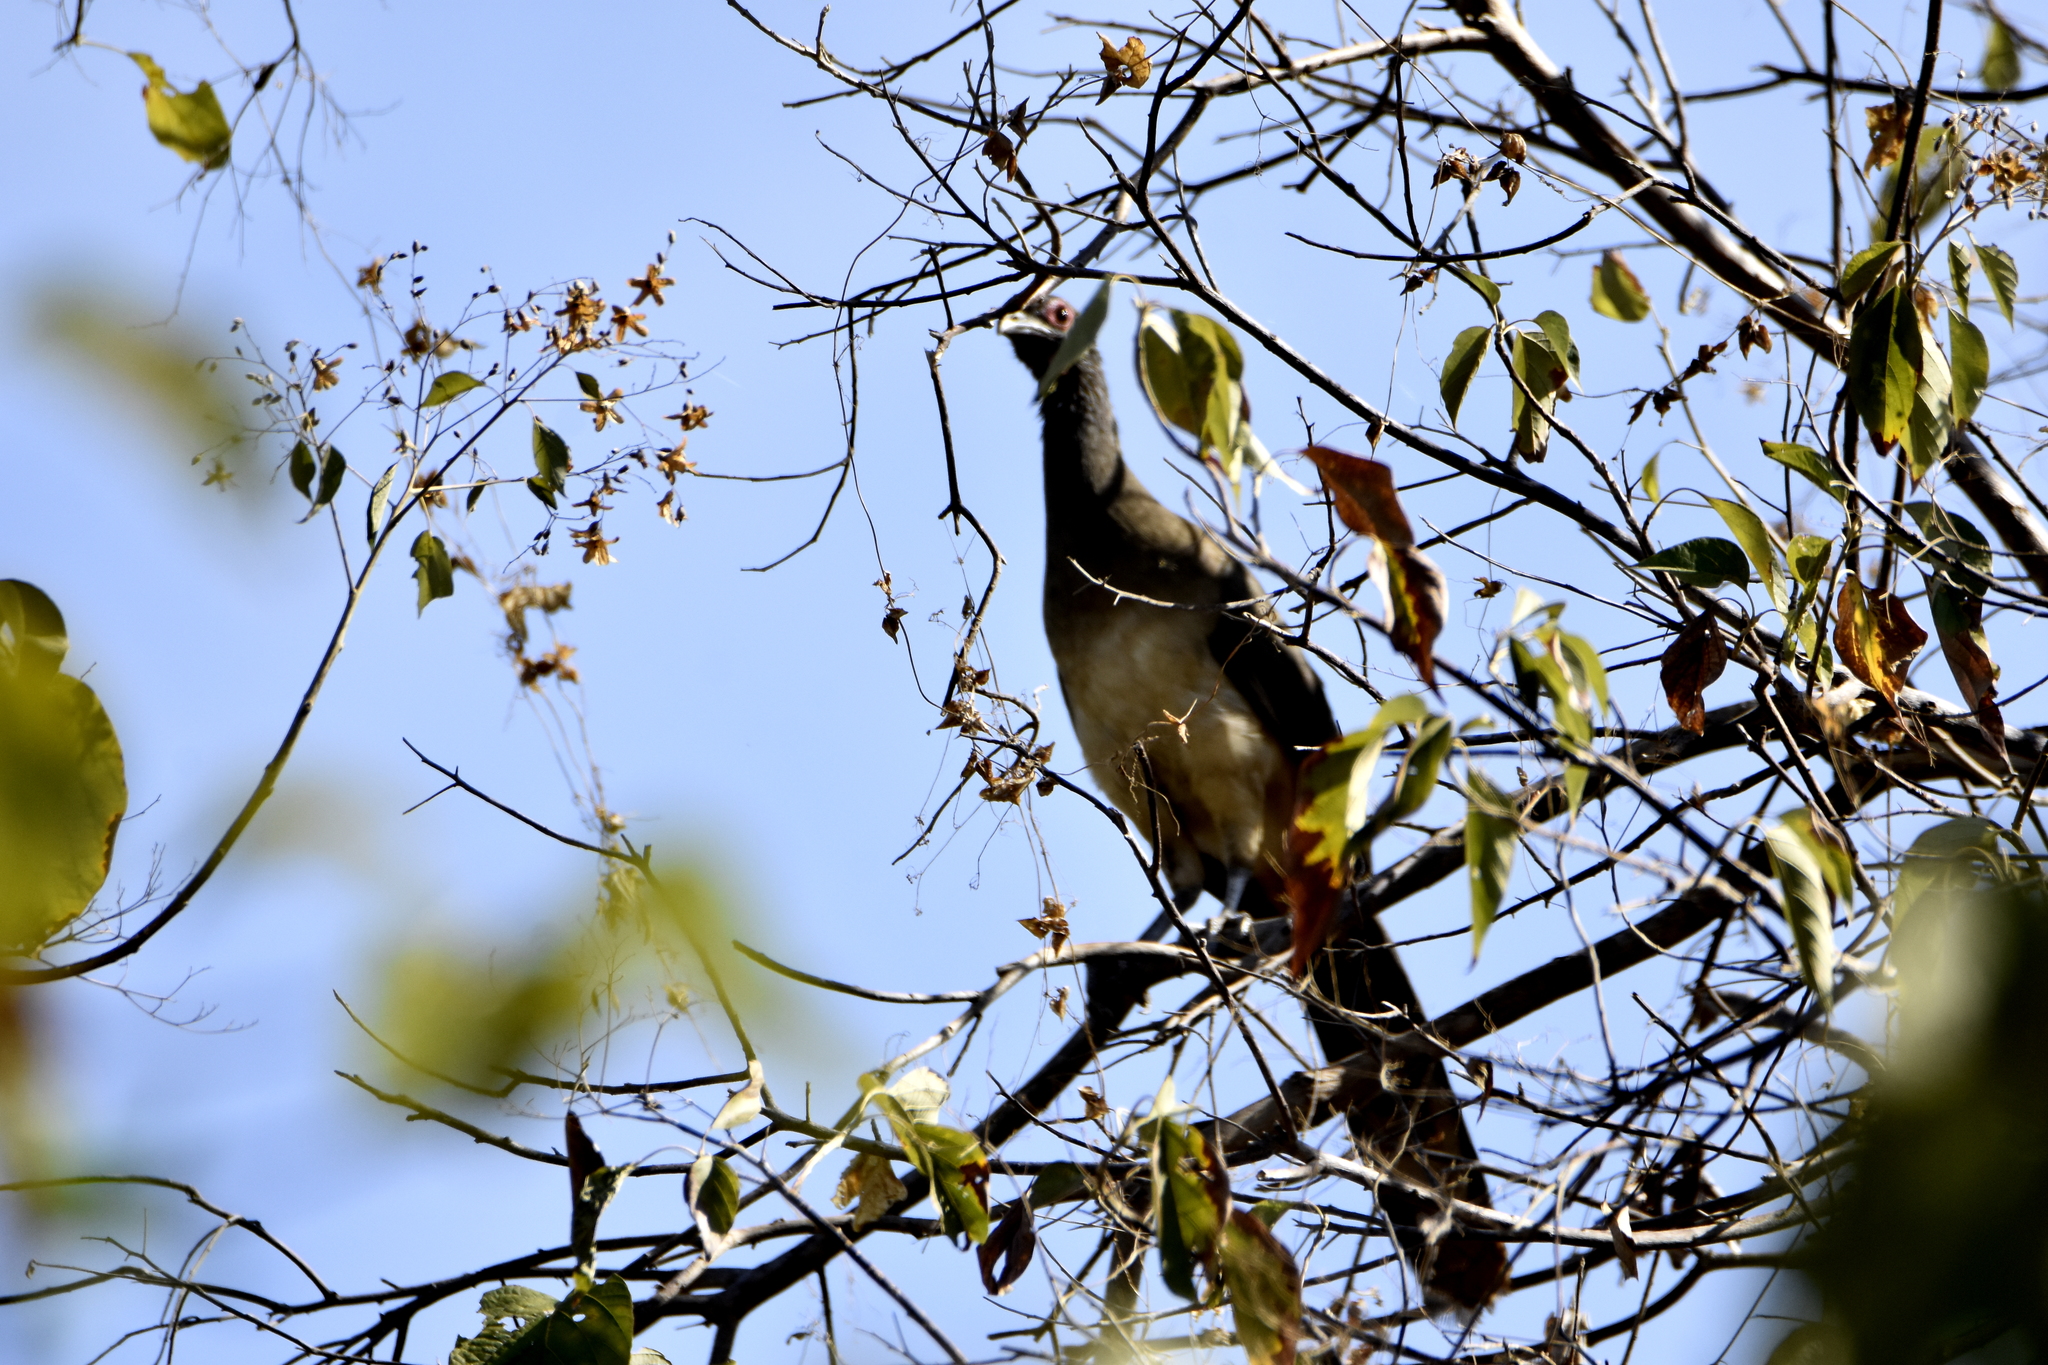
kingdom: Animalia
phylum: Chordata
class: Aves
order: Galliformes
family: Cracidae
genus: Ortalis
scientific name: Ortalis poliocephala
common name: West mexican chachalaca
